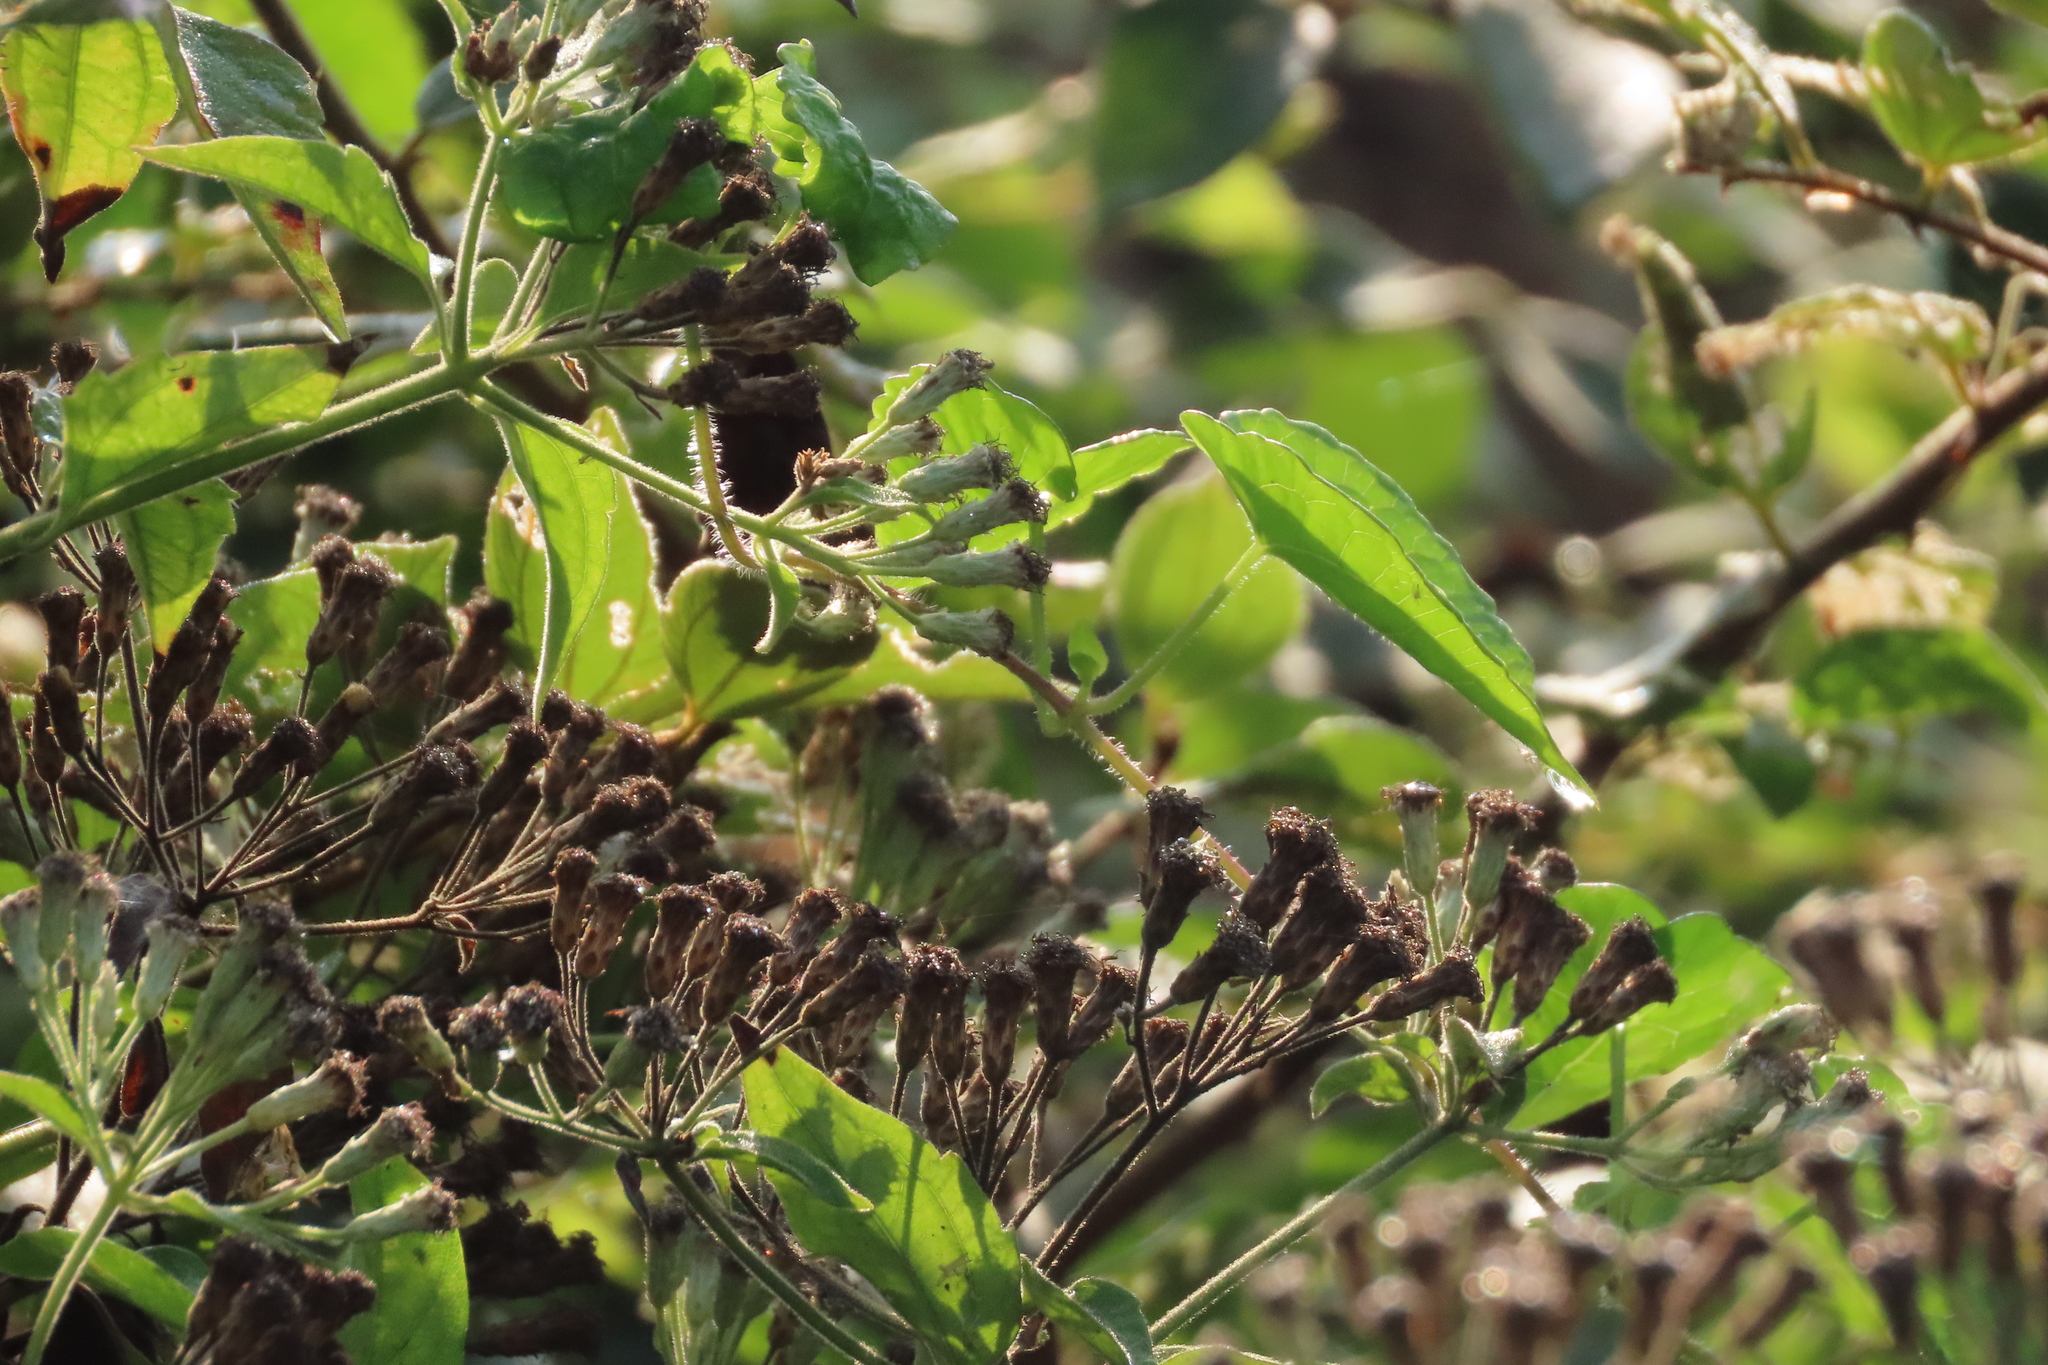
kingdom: Plantae
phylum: Tracheophyta
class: Magnoliopsida
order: Asterales
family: Asteraceae
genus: Chromolaena
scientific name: Chromolaena odorata
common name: Siamweed
